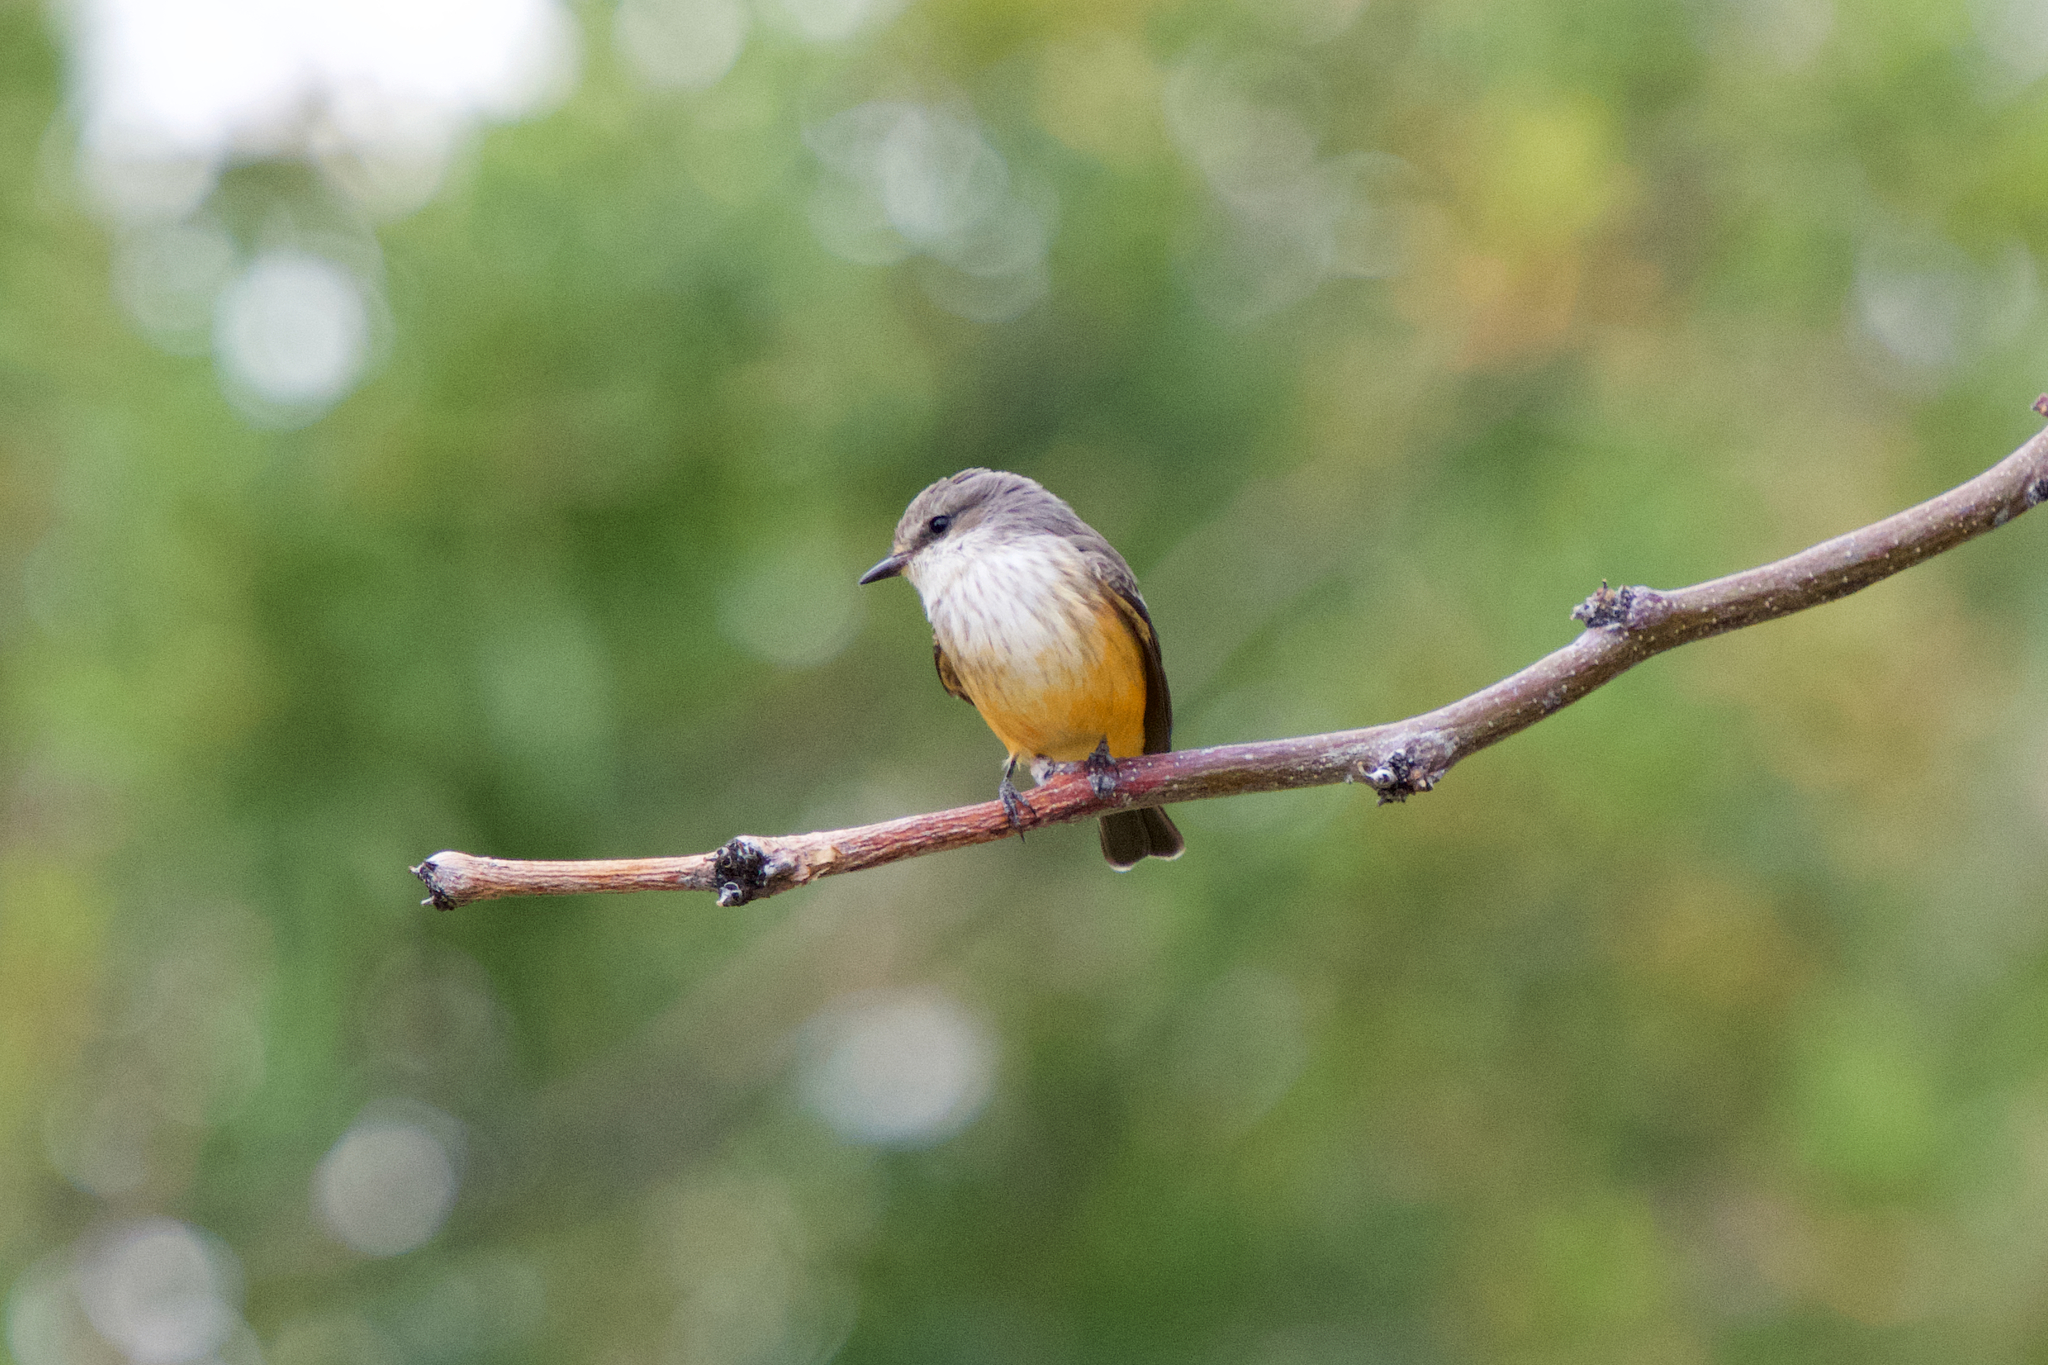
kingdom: Animalia
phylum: Chordata
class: Aves
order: Passeriformes
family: Tyrannidae
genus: Pyrocephalus
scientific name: Pyrocephalus rubinus
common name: Vermilion flycatcher
